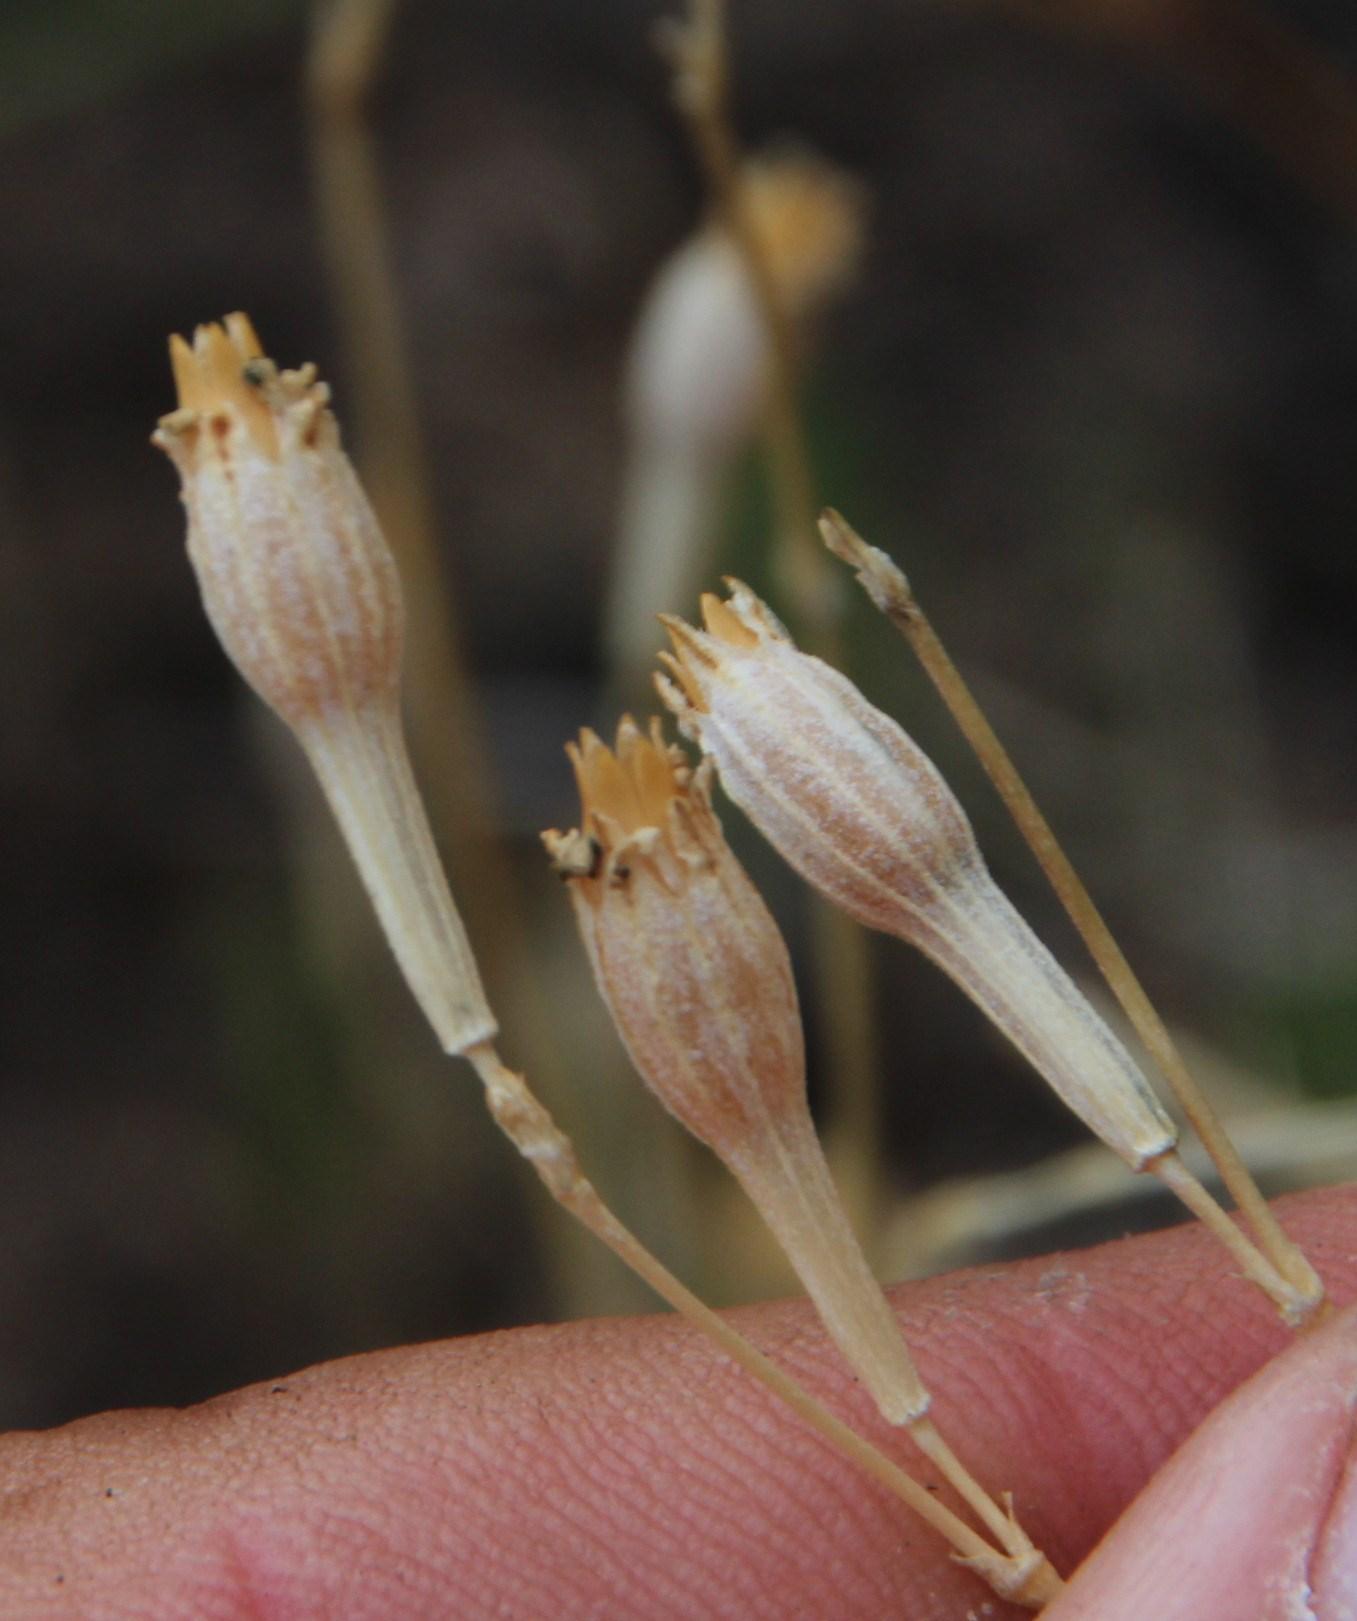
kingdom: Plantae
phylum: Tracheophyta
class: Magnoliopsida
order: Caryophyllales
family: Caryophyllaceae
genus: Silene
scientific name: Silene burchellii
